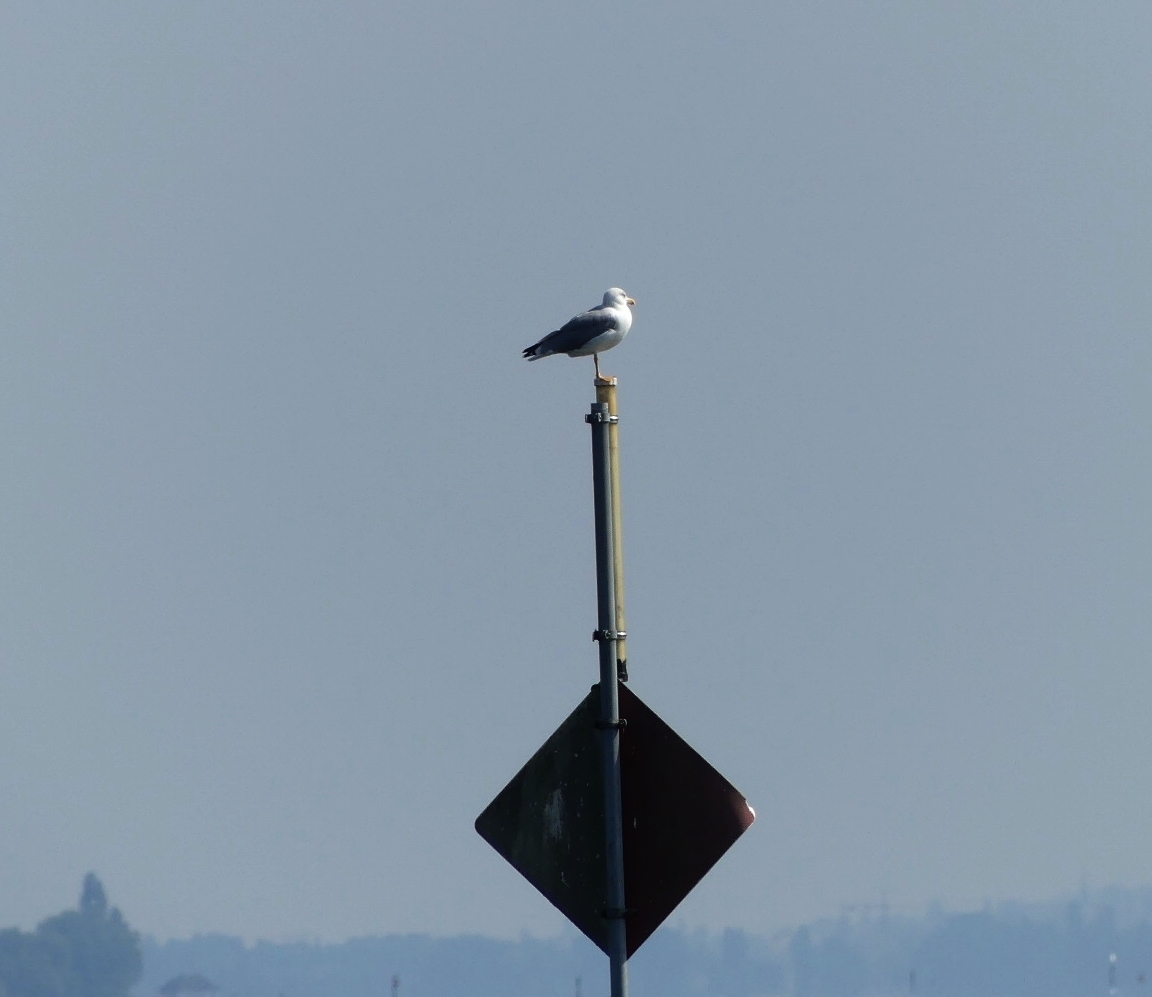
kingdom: Animalia
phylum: Chordata
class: Aves
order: Charadriiformes
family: Laridae
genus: Larus
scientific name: Larus michahellis
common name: Yellow-legged gull
